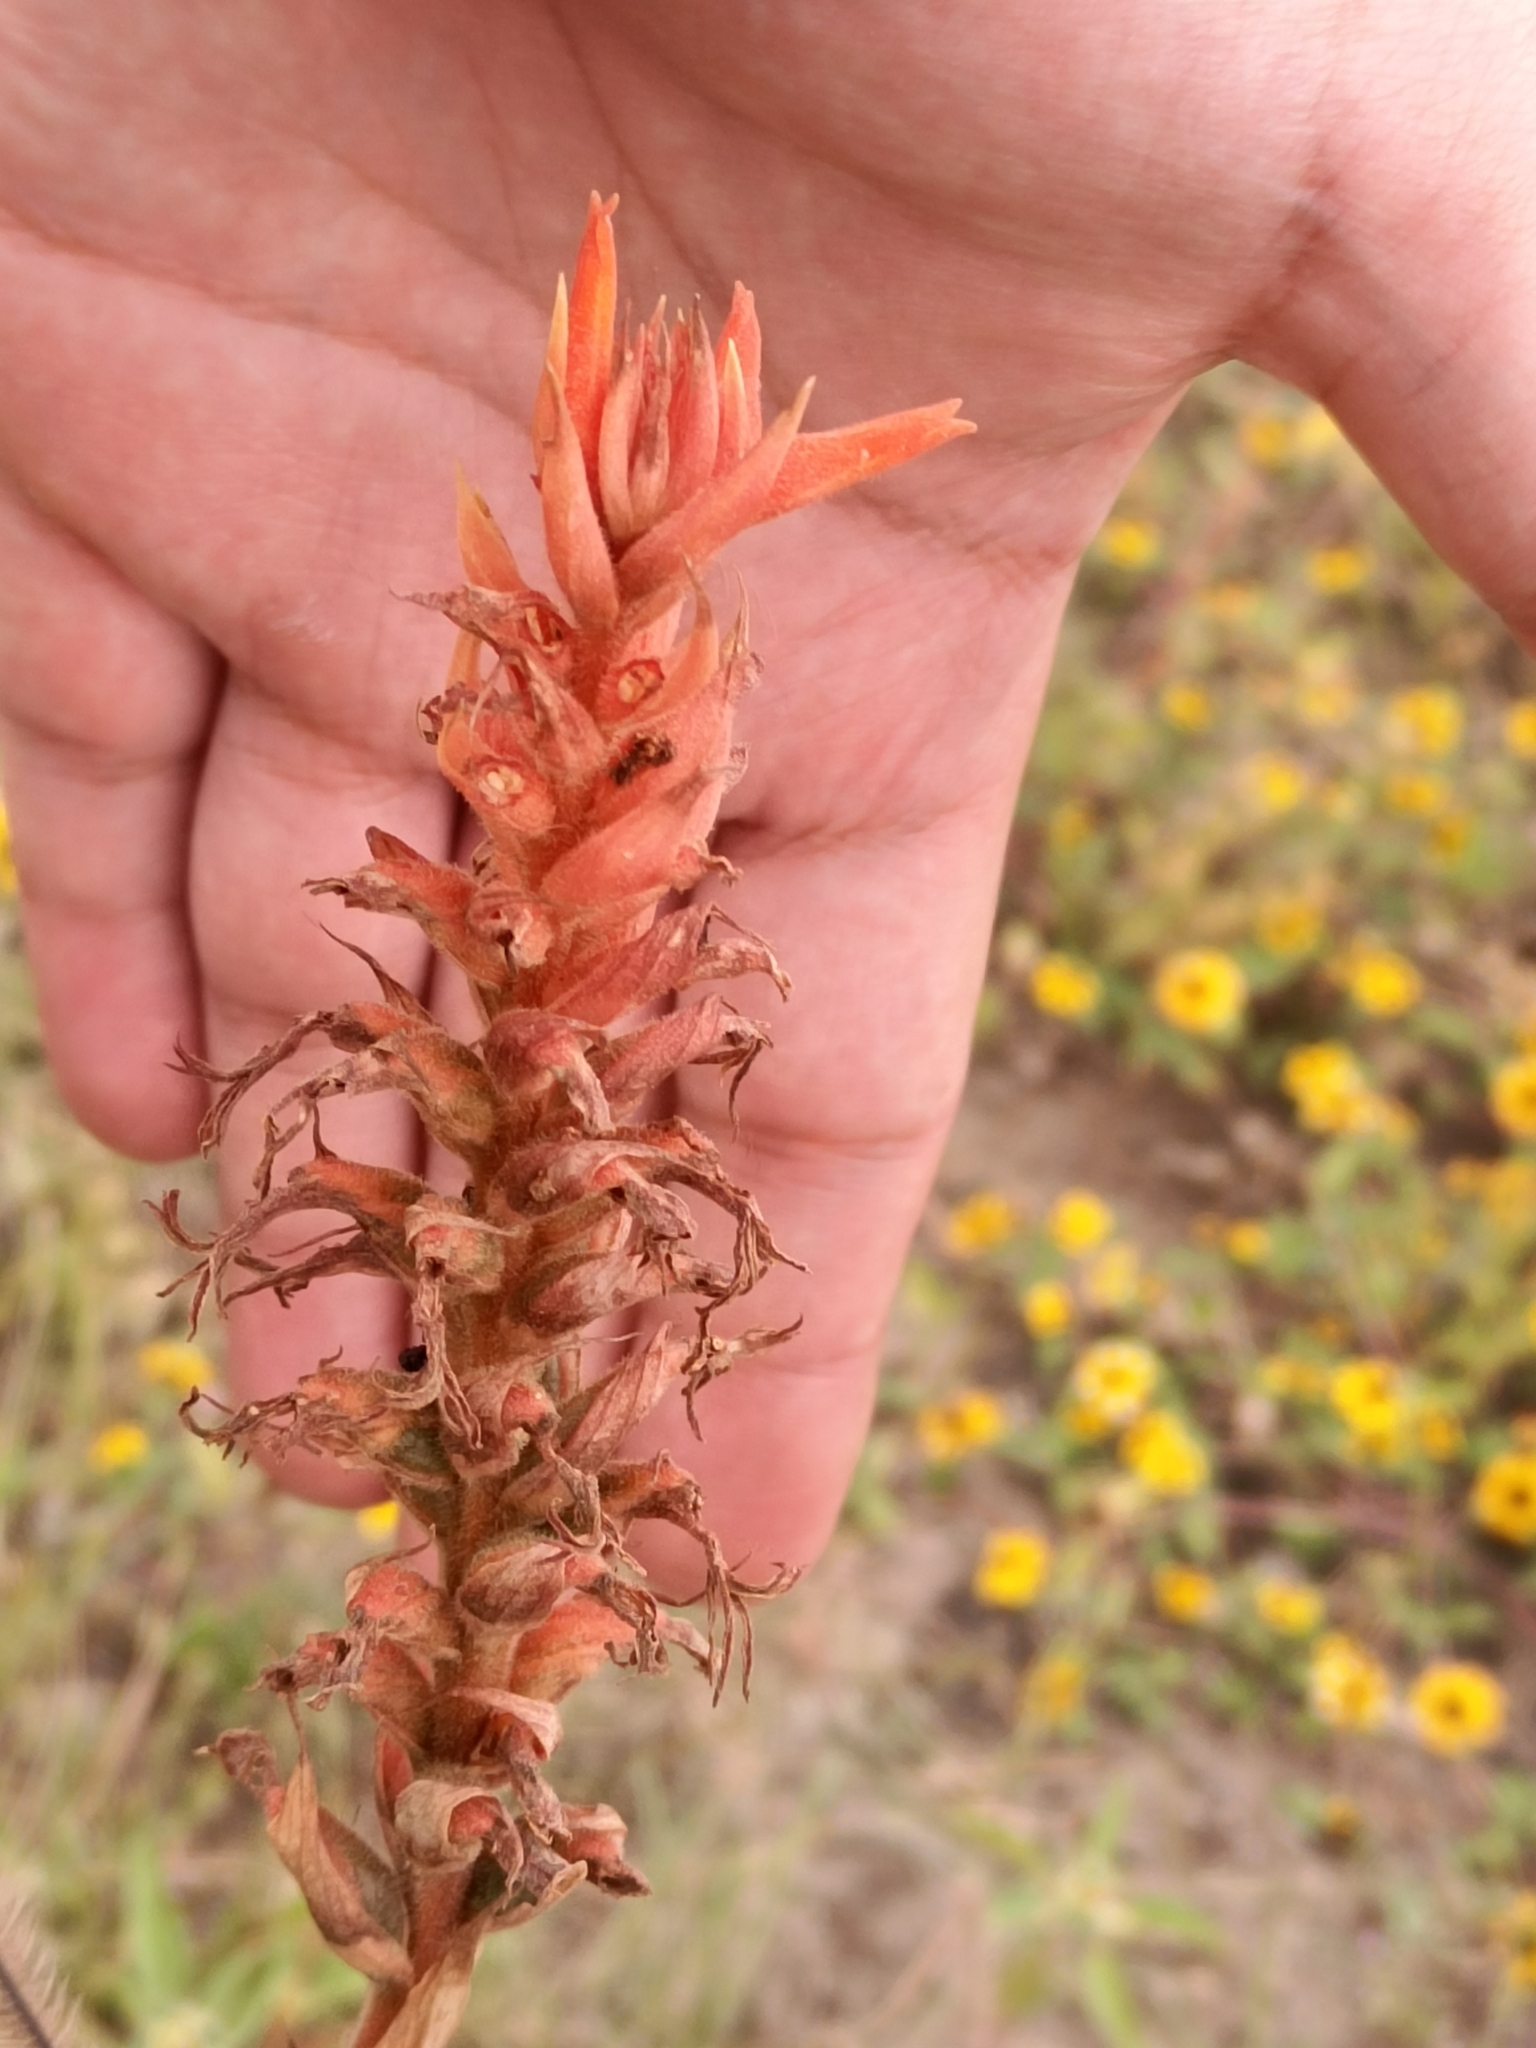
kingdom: Plantae
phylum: Tracheophyta
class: Liliopsida
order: Asparagales
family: Orchidaceae
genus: Dichromanthus
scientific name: Dichromanthus cinnabarinus
